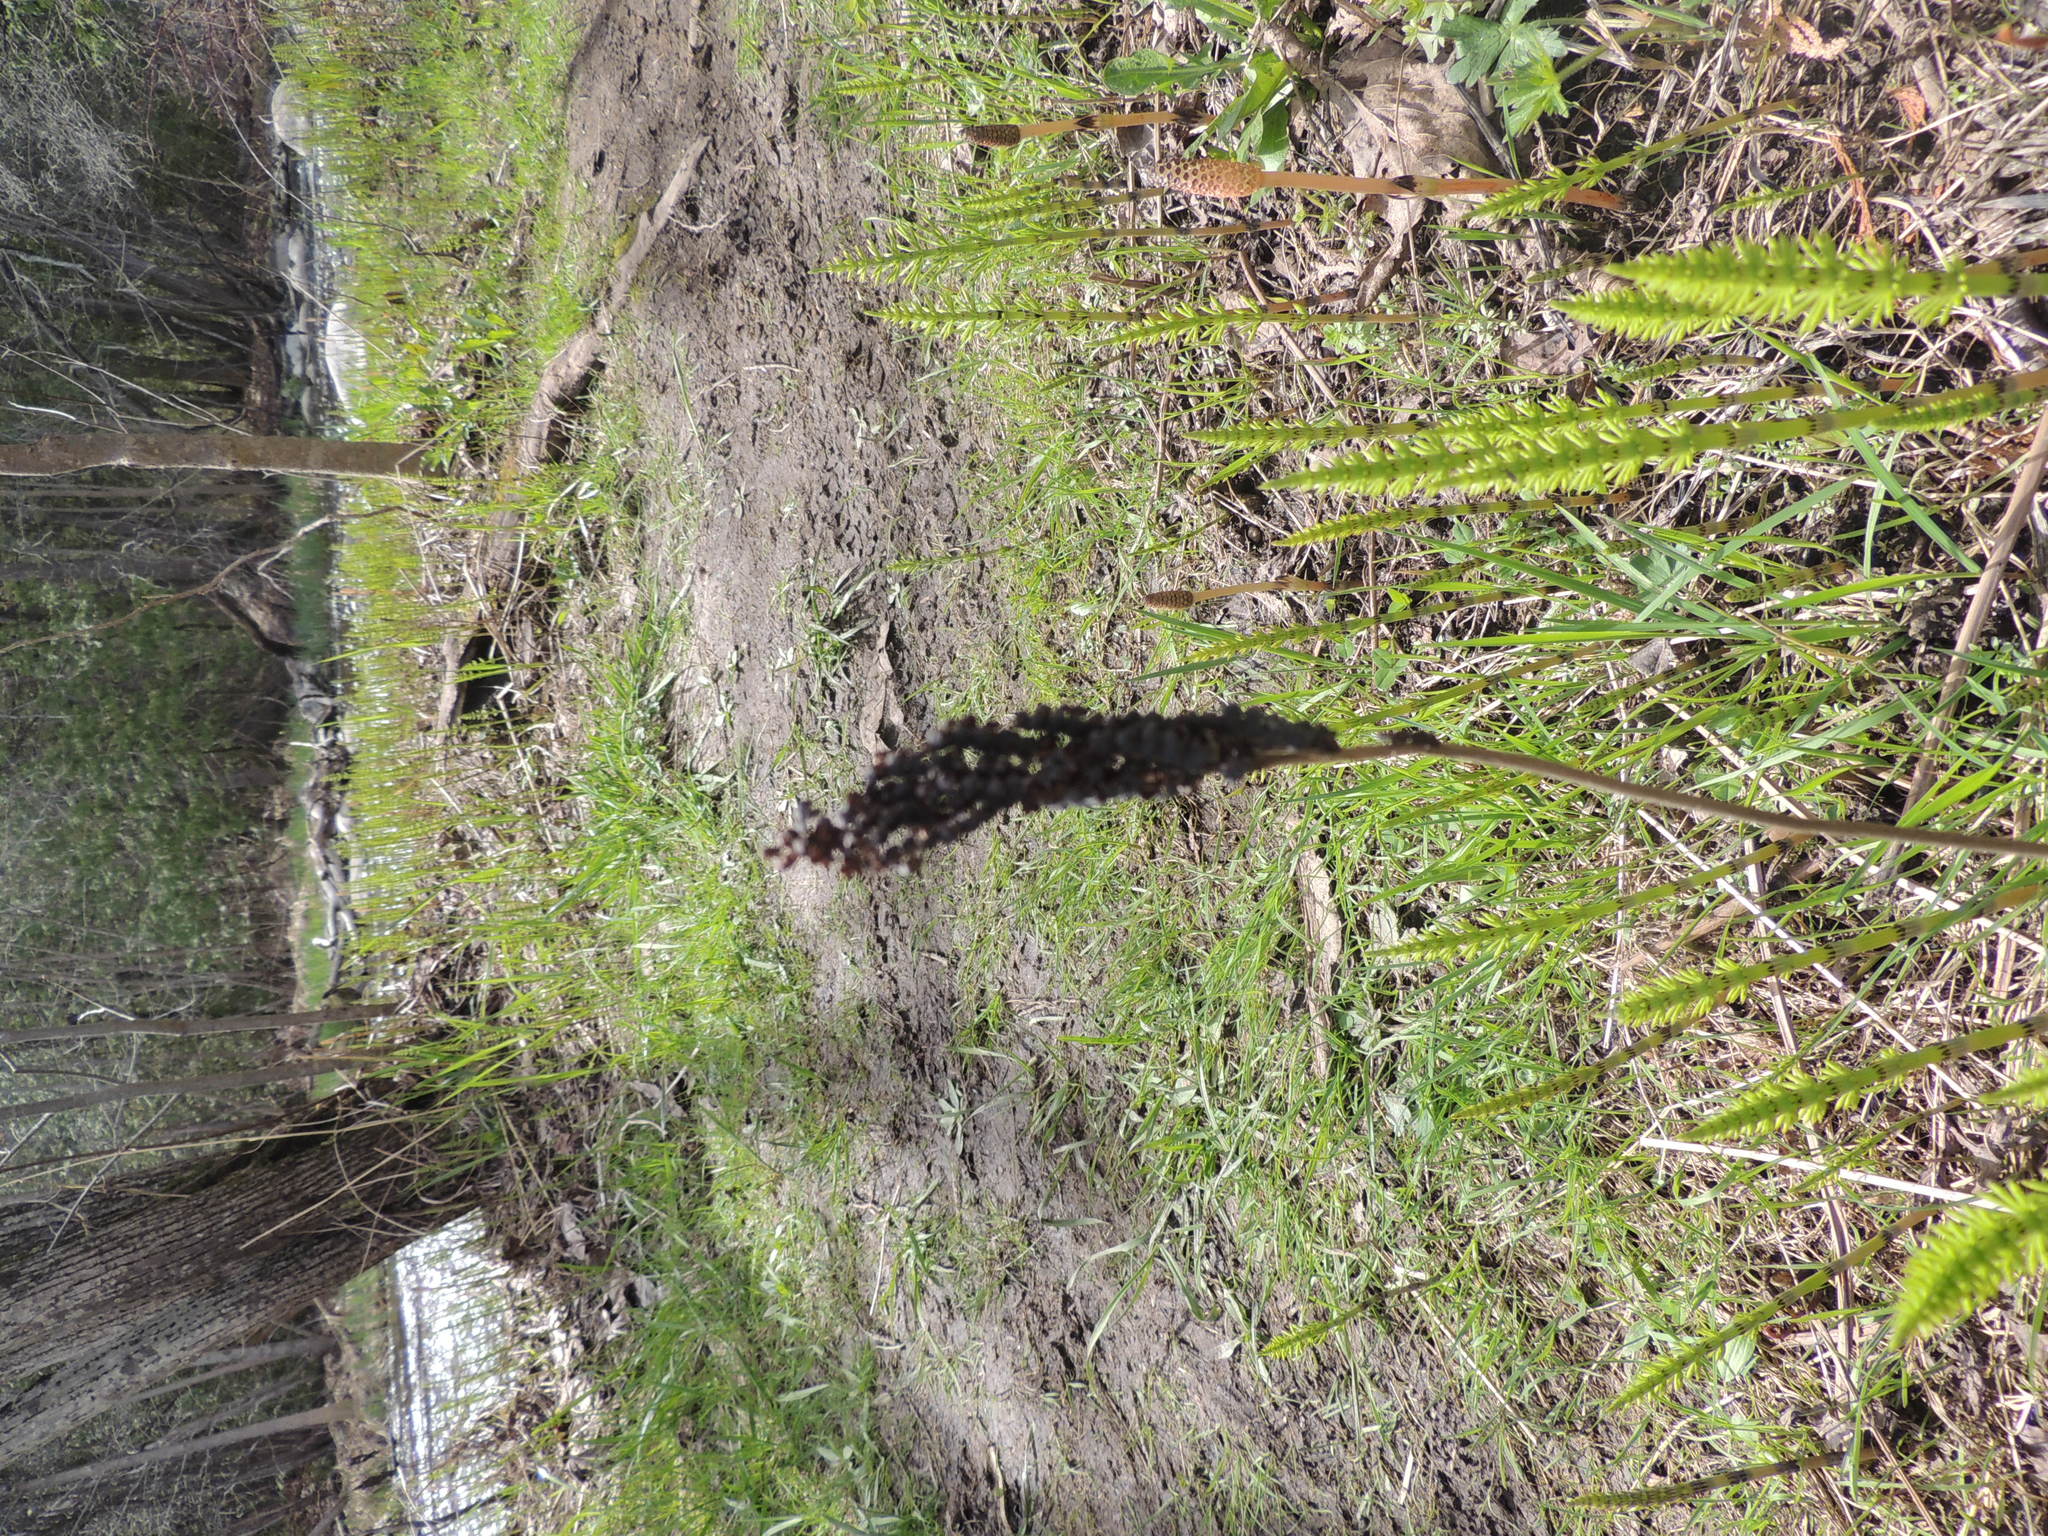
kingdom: Plantae
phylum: Tracheophyta
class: Polypodiopsida
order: Polypodiales
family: Onocleaceae
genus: Onoclea
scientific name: Onoclea sensibilis
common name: Sensitive fern
